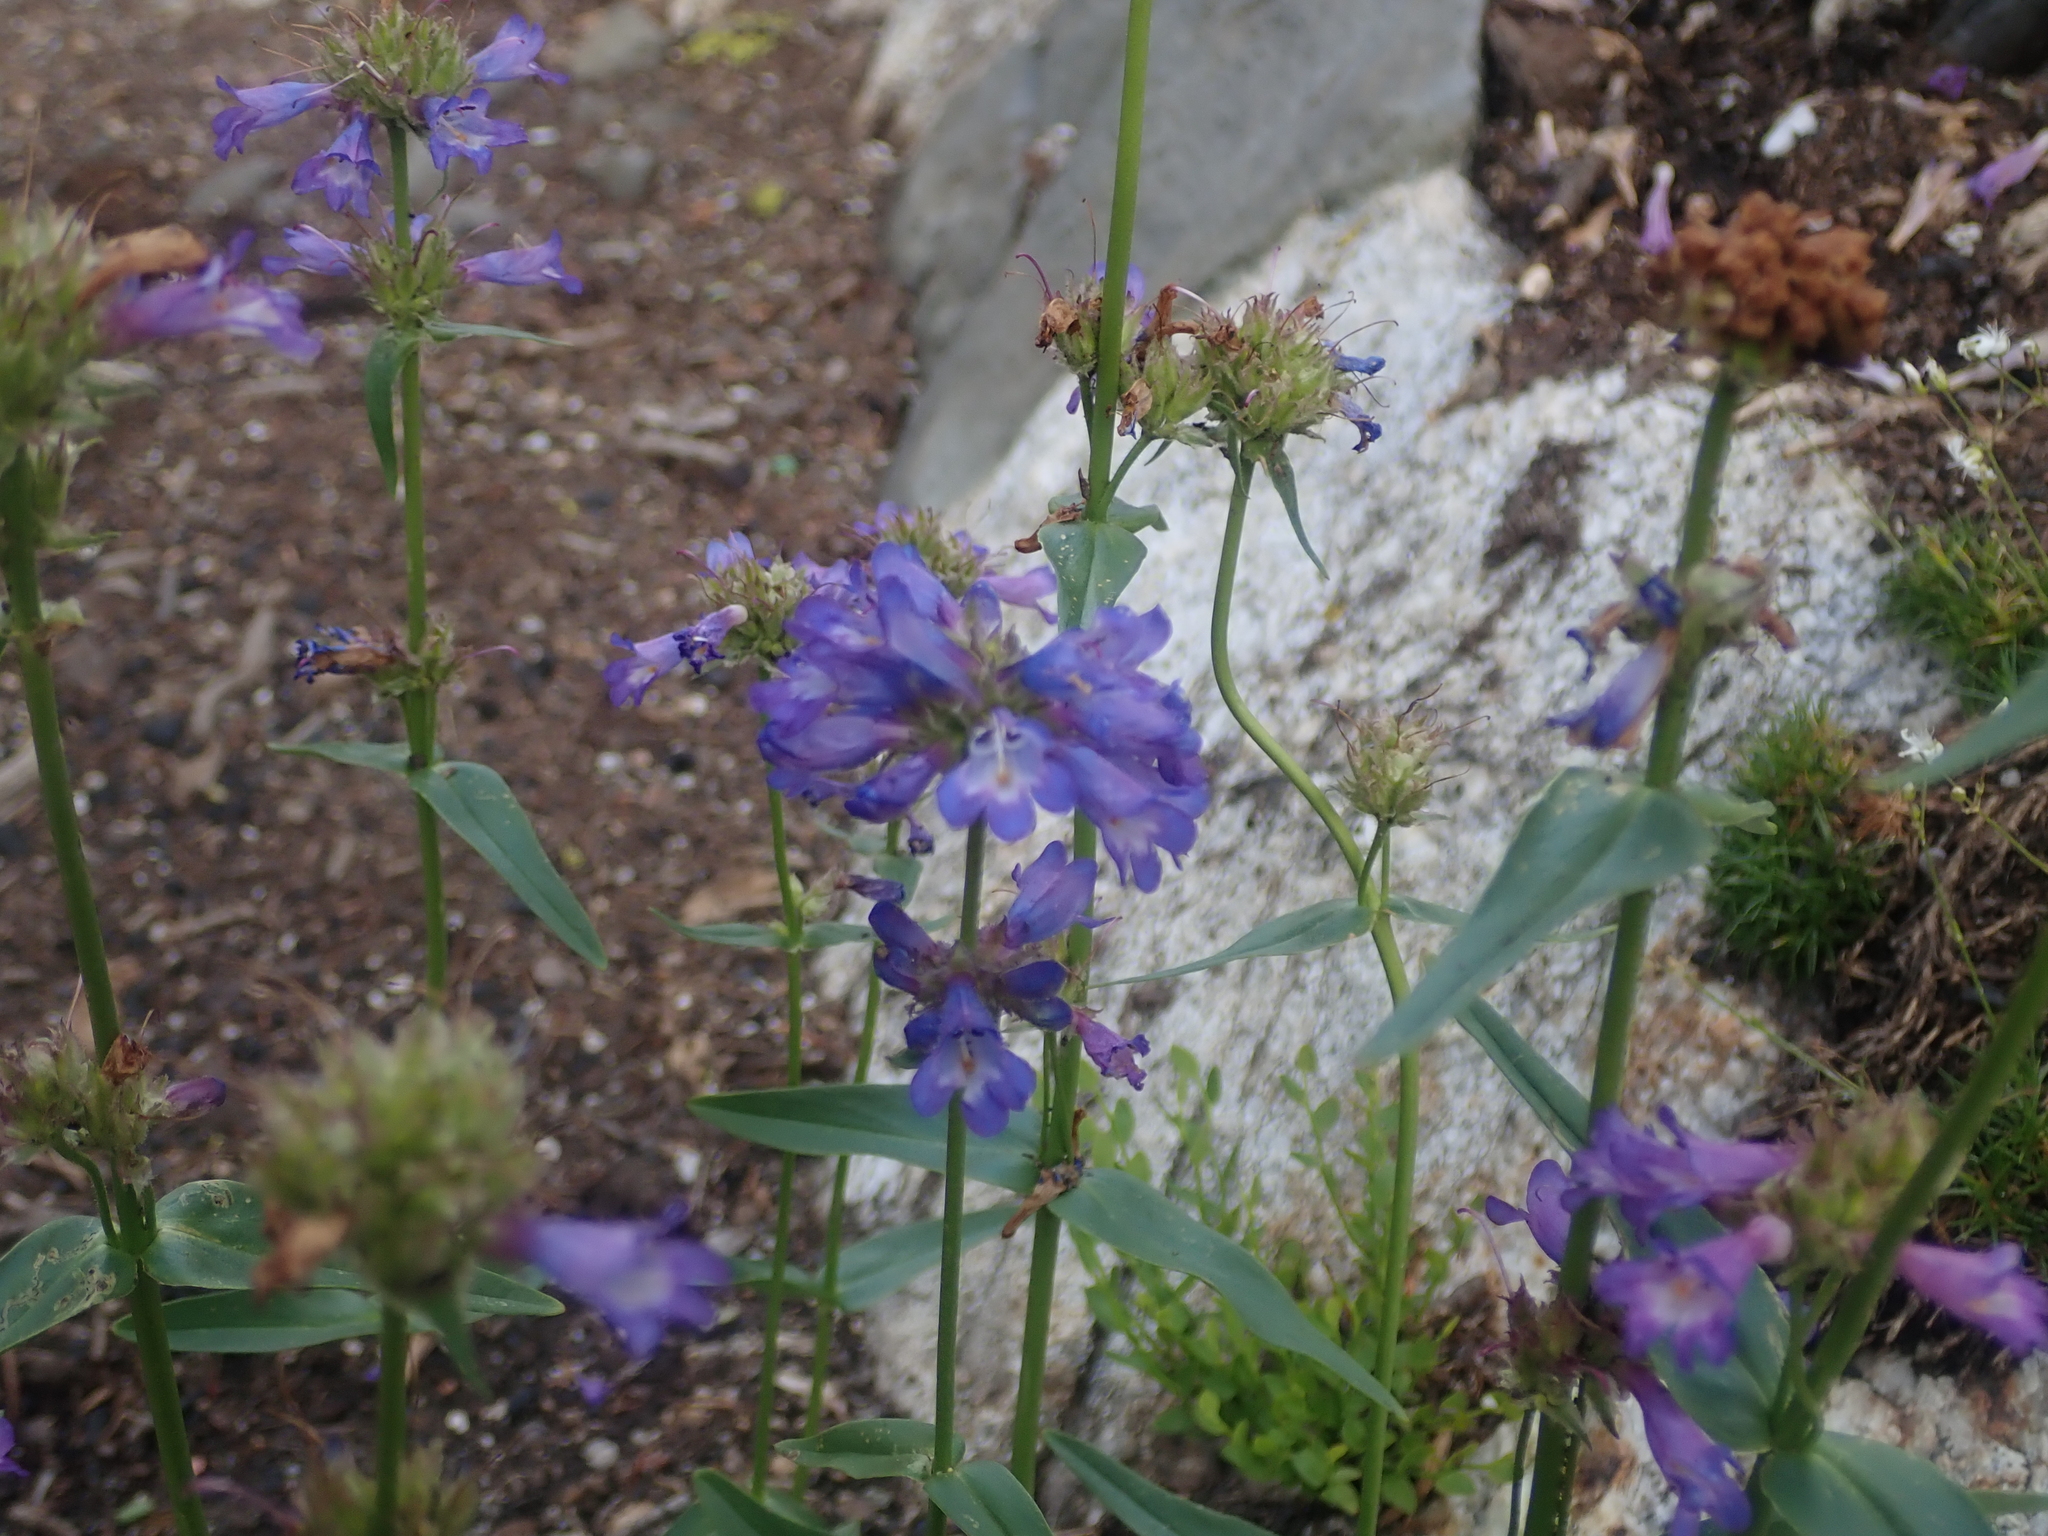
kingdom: Plantae
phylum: Tracheophyta
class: Magnoliopsida
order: Lamiales
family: Plantaginaceae
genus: Penstemon
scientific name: Penstemon attenuatus
